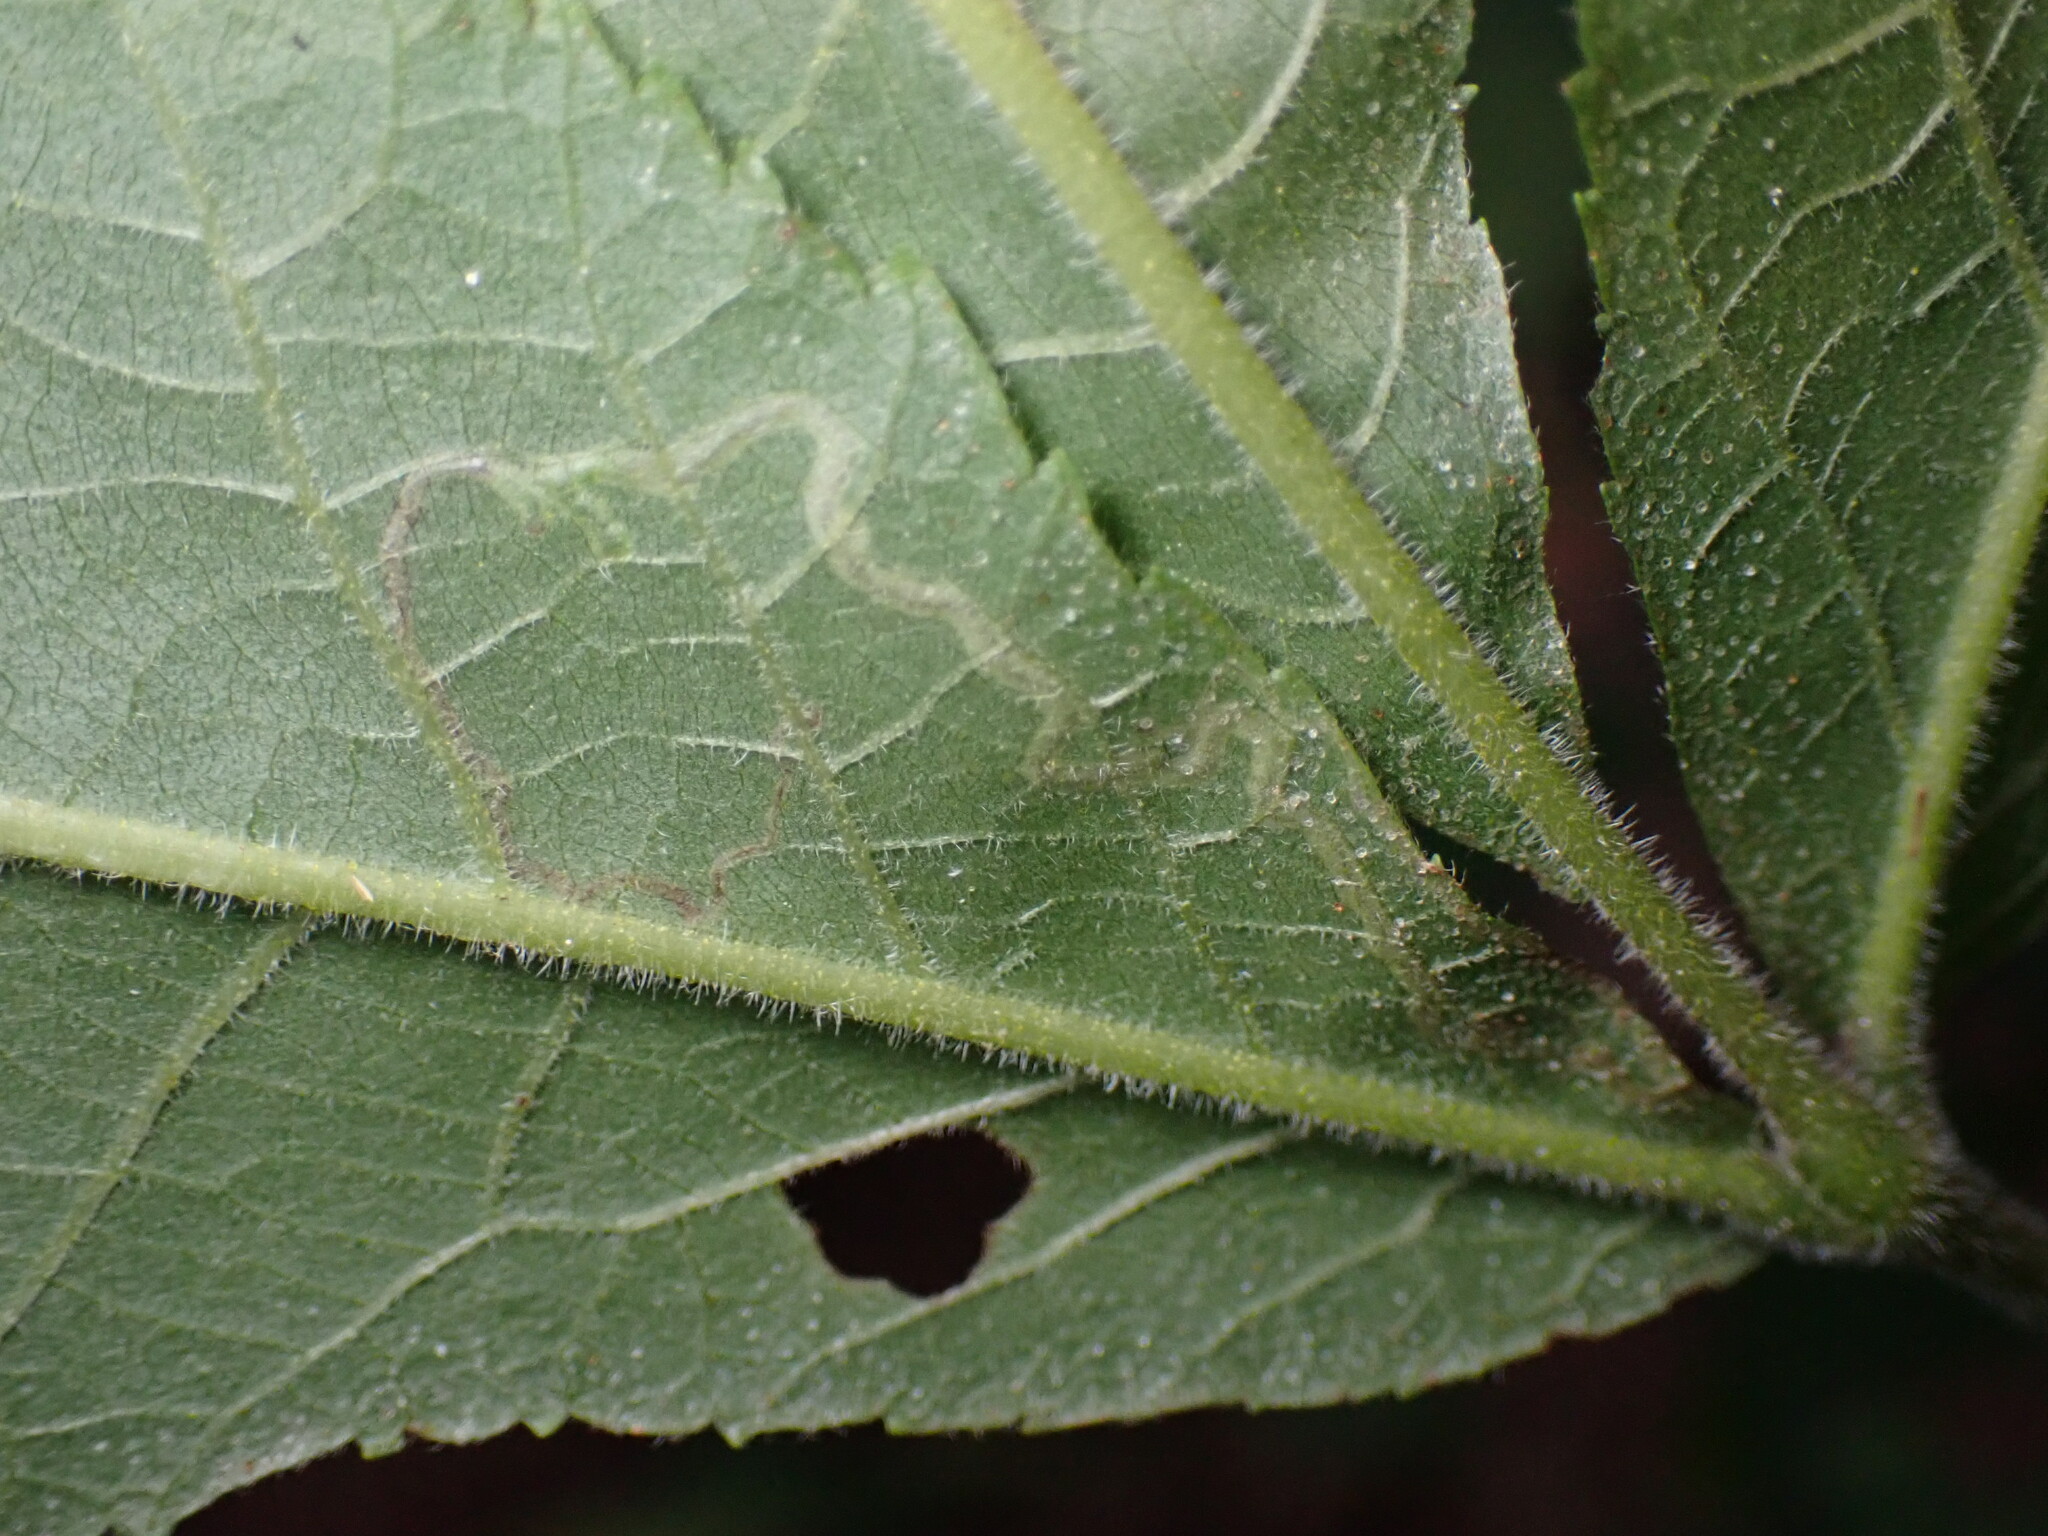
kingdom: Animalia
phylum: Arthropoda
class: Insecta
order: Lepidoptera
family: Nepticulidae
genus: Stigmella
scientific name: Stigmella caryaefoliella
